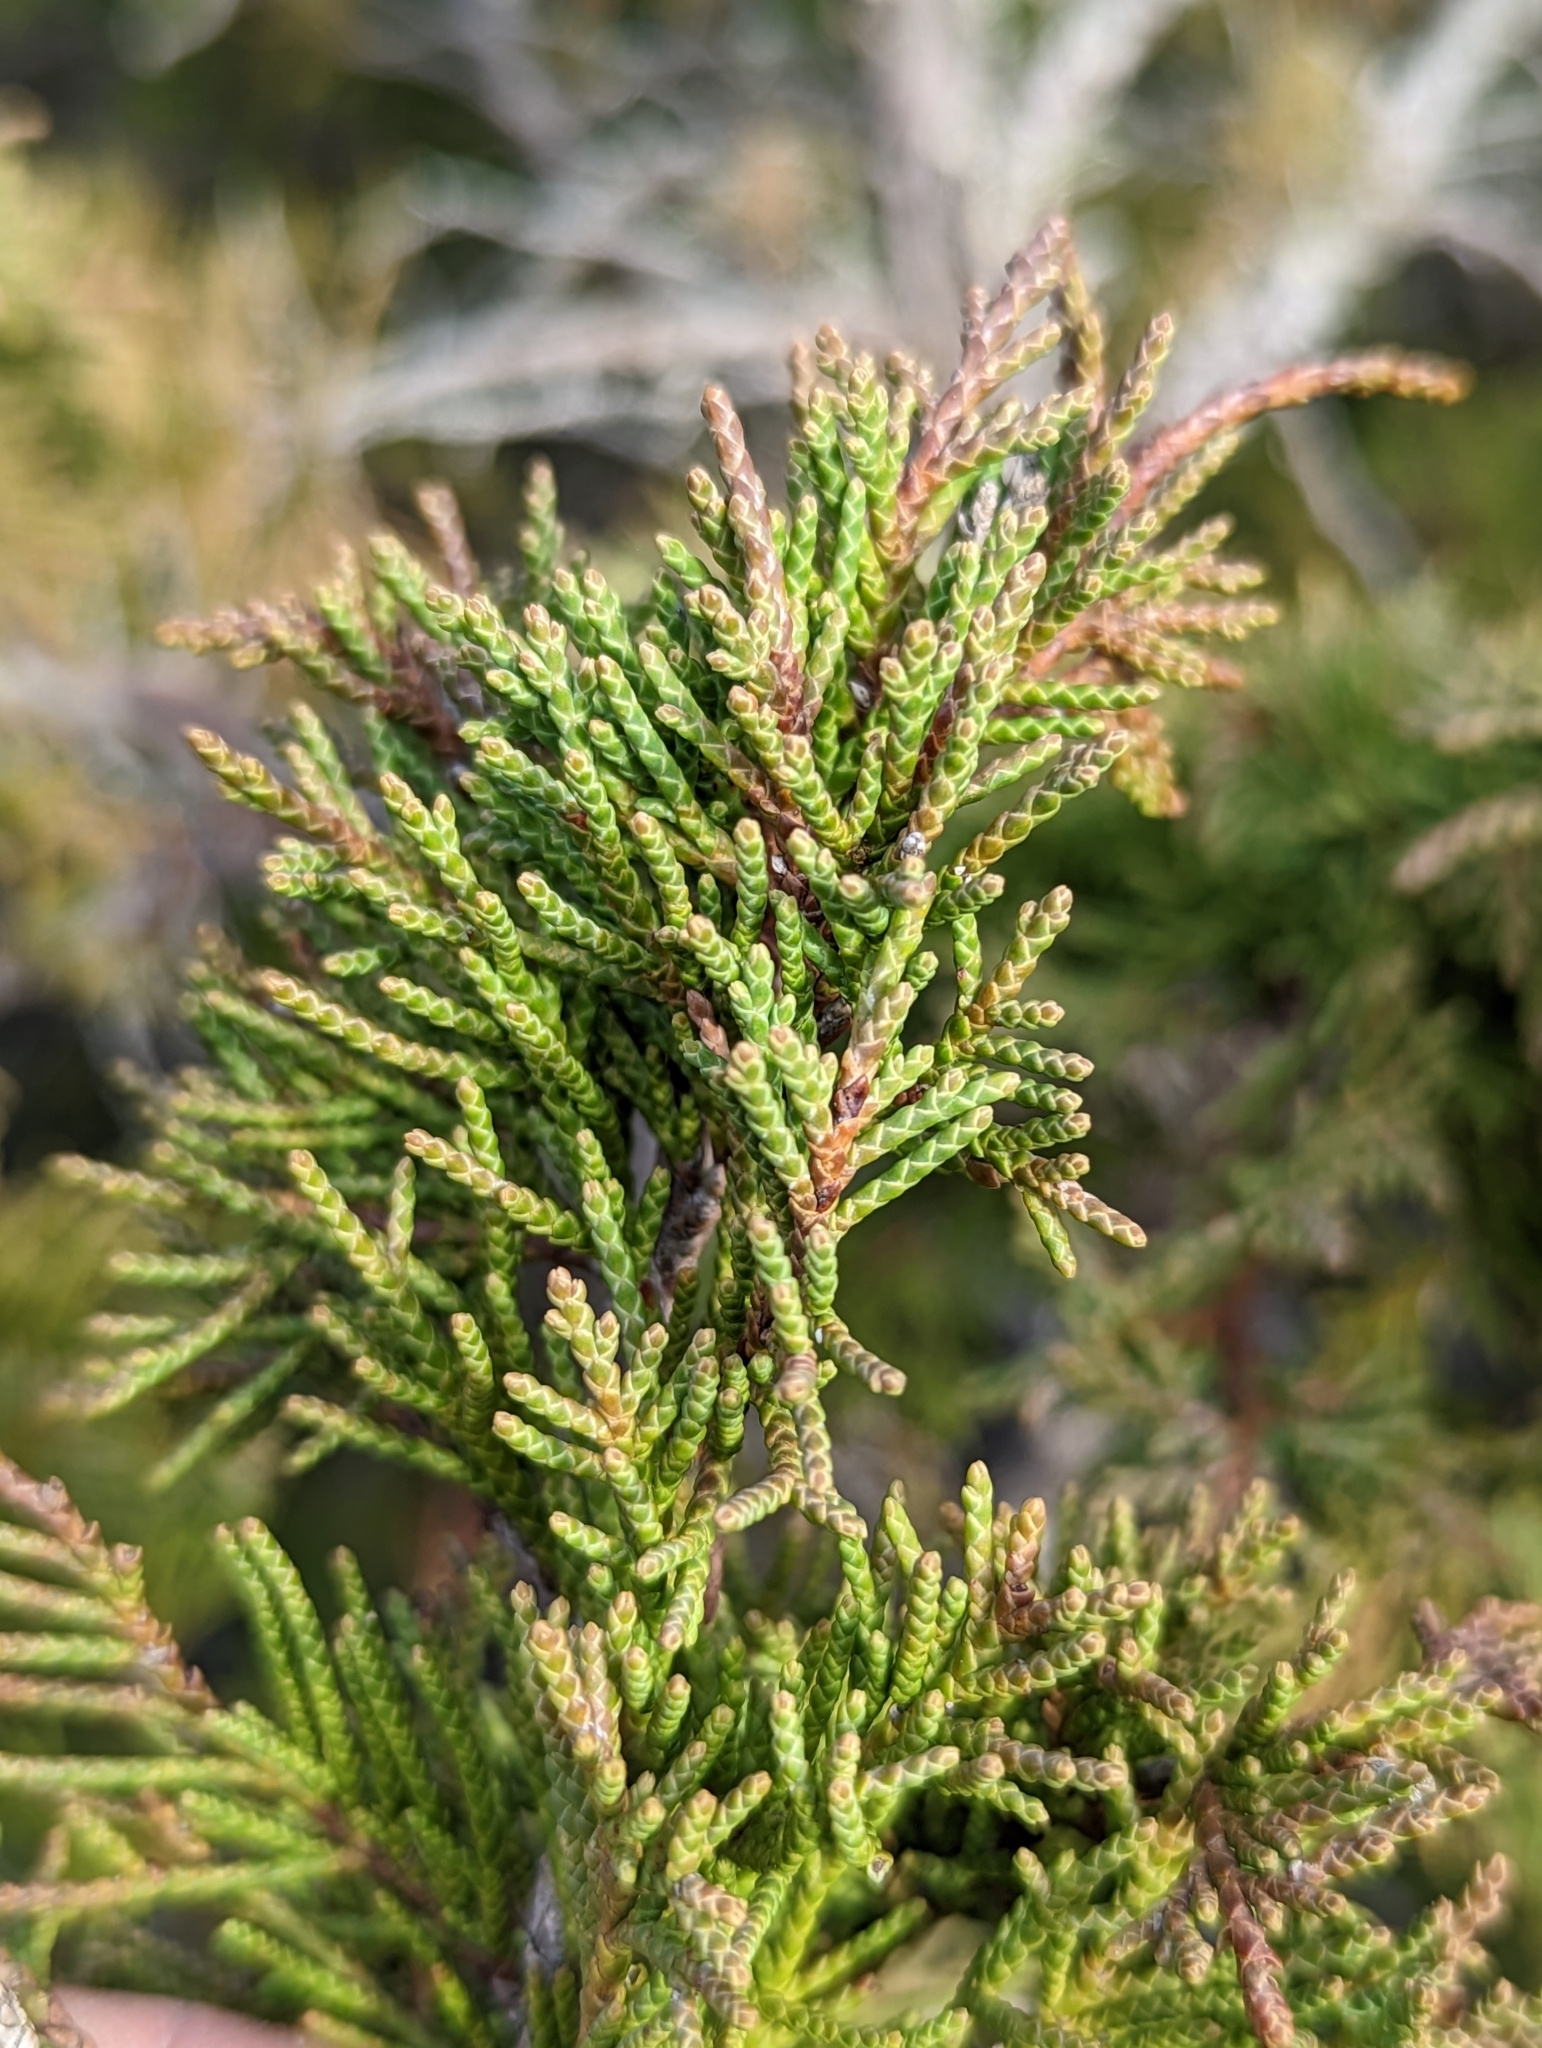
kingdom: Plantae
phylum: Tracheophyta
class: Pinopsida
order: Pinales
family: Cupressaceae
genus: Juniperus
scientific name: Juniperus scopulorum
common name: Rocky mountain juniper
